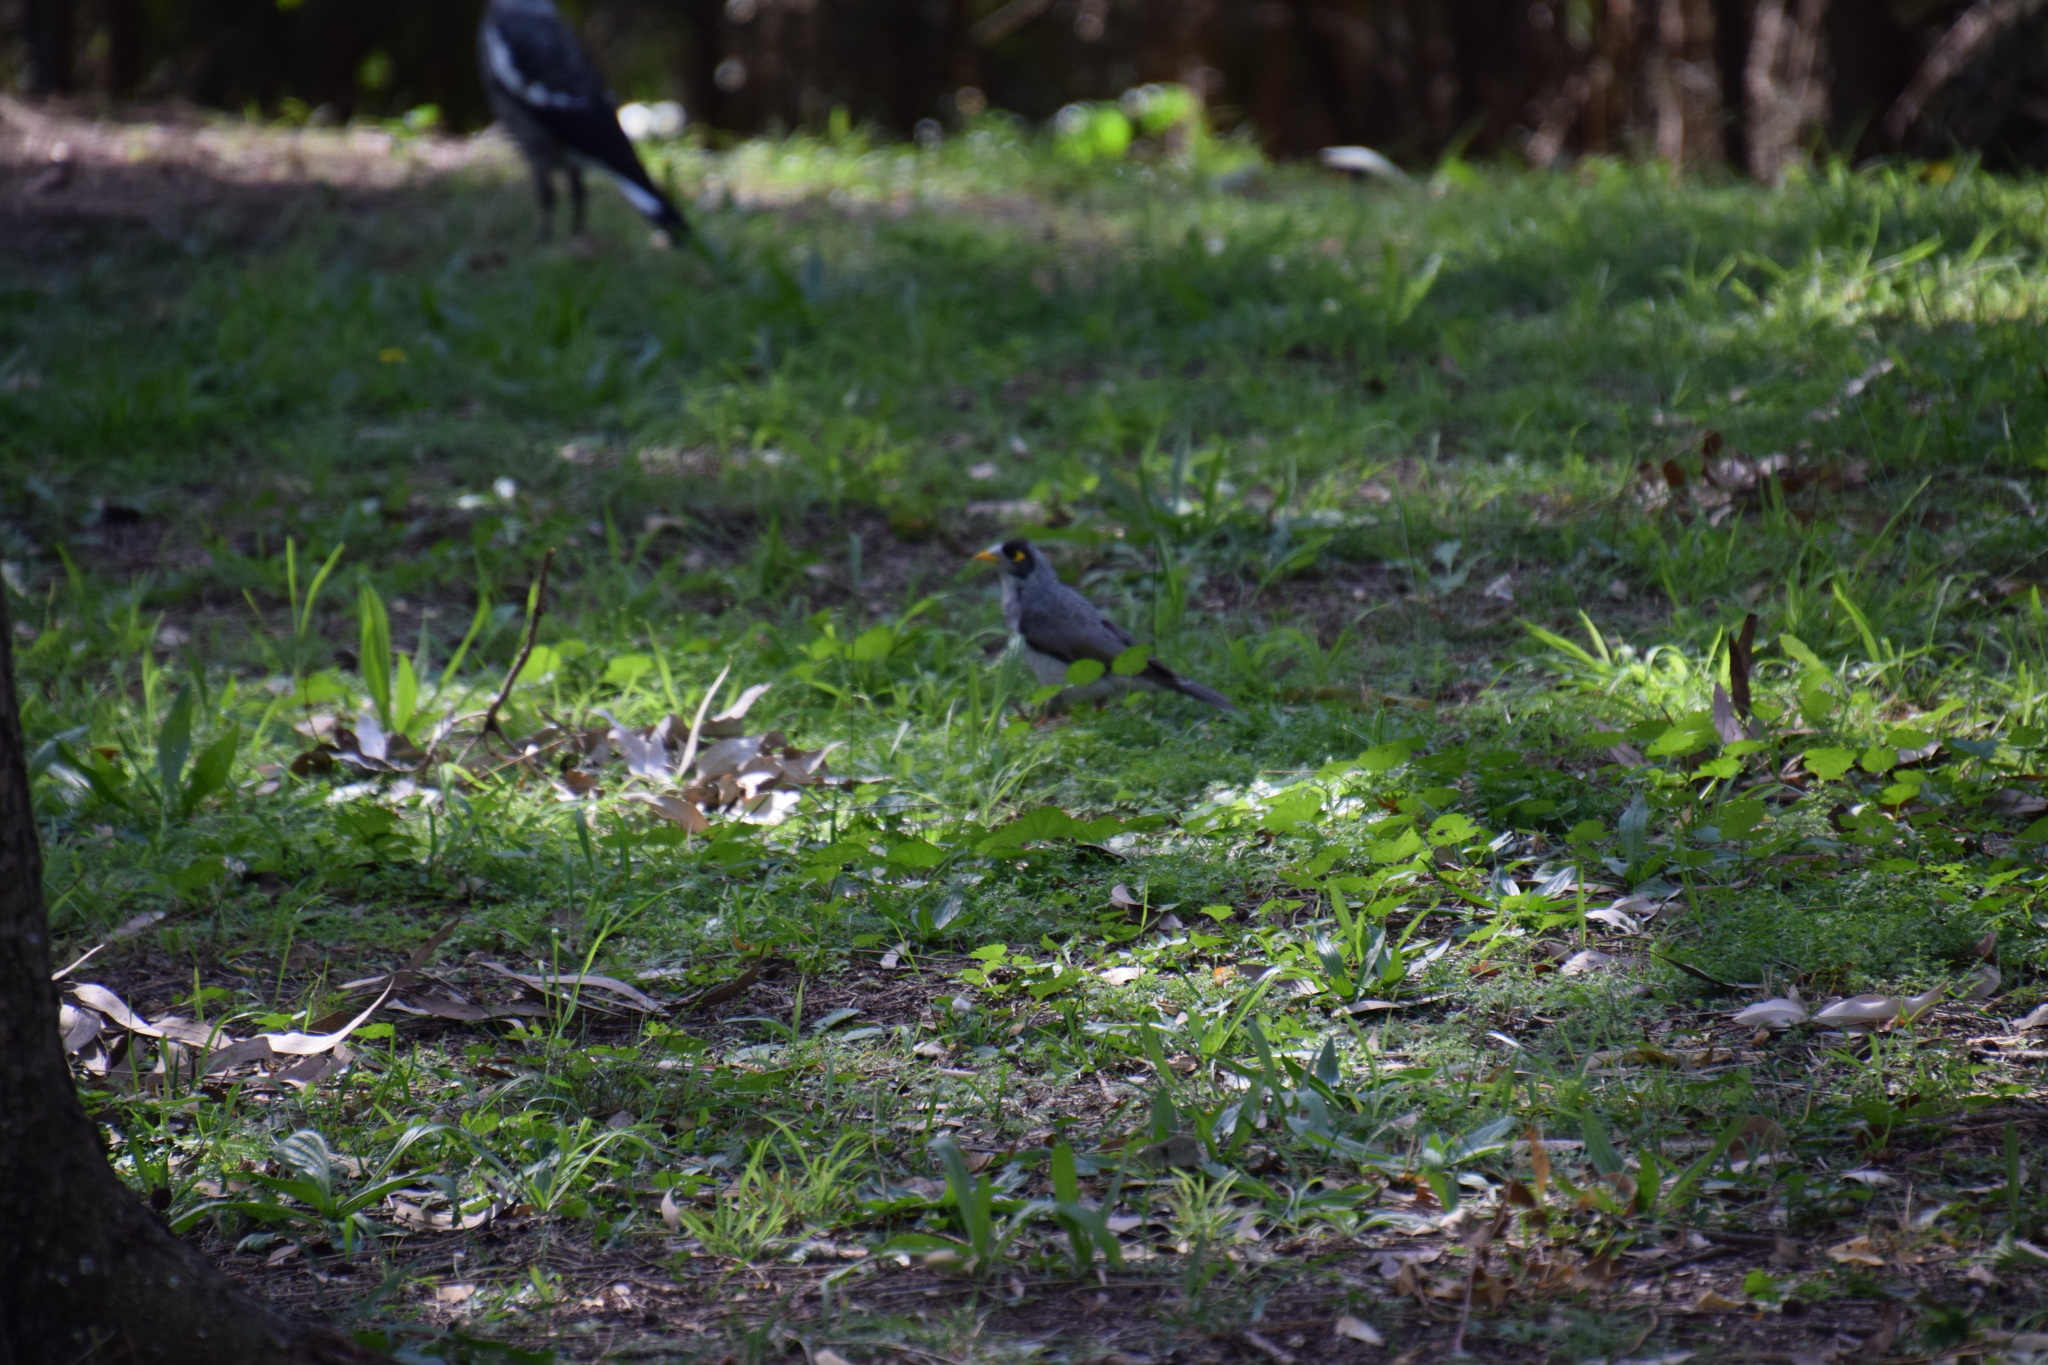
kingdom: Animalia
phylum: Chordata
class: Aves
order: Passeriformes
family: Meliphagidae
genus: Manorina
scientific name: Manorina melanocephala
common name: Noisy miner
